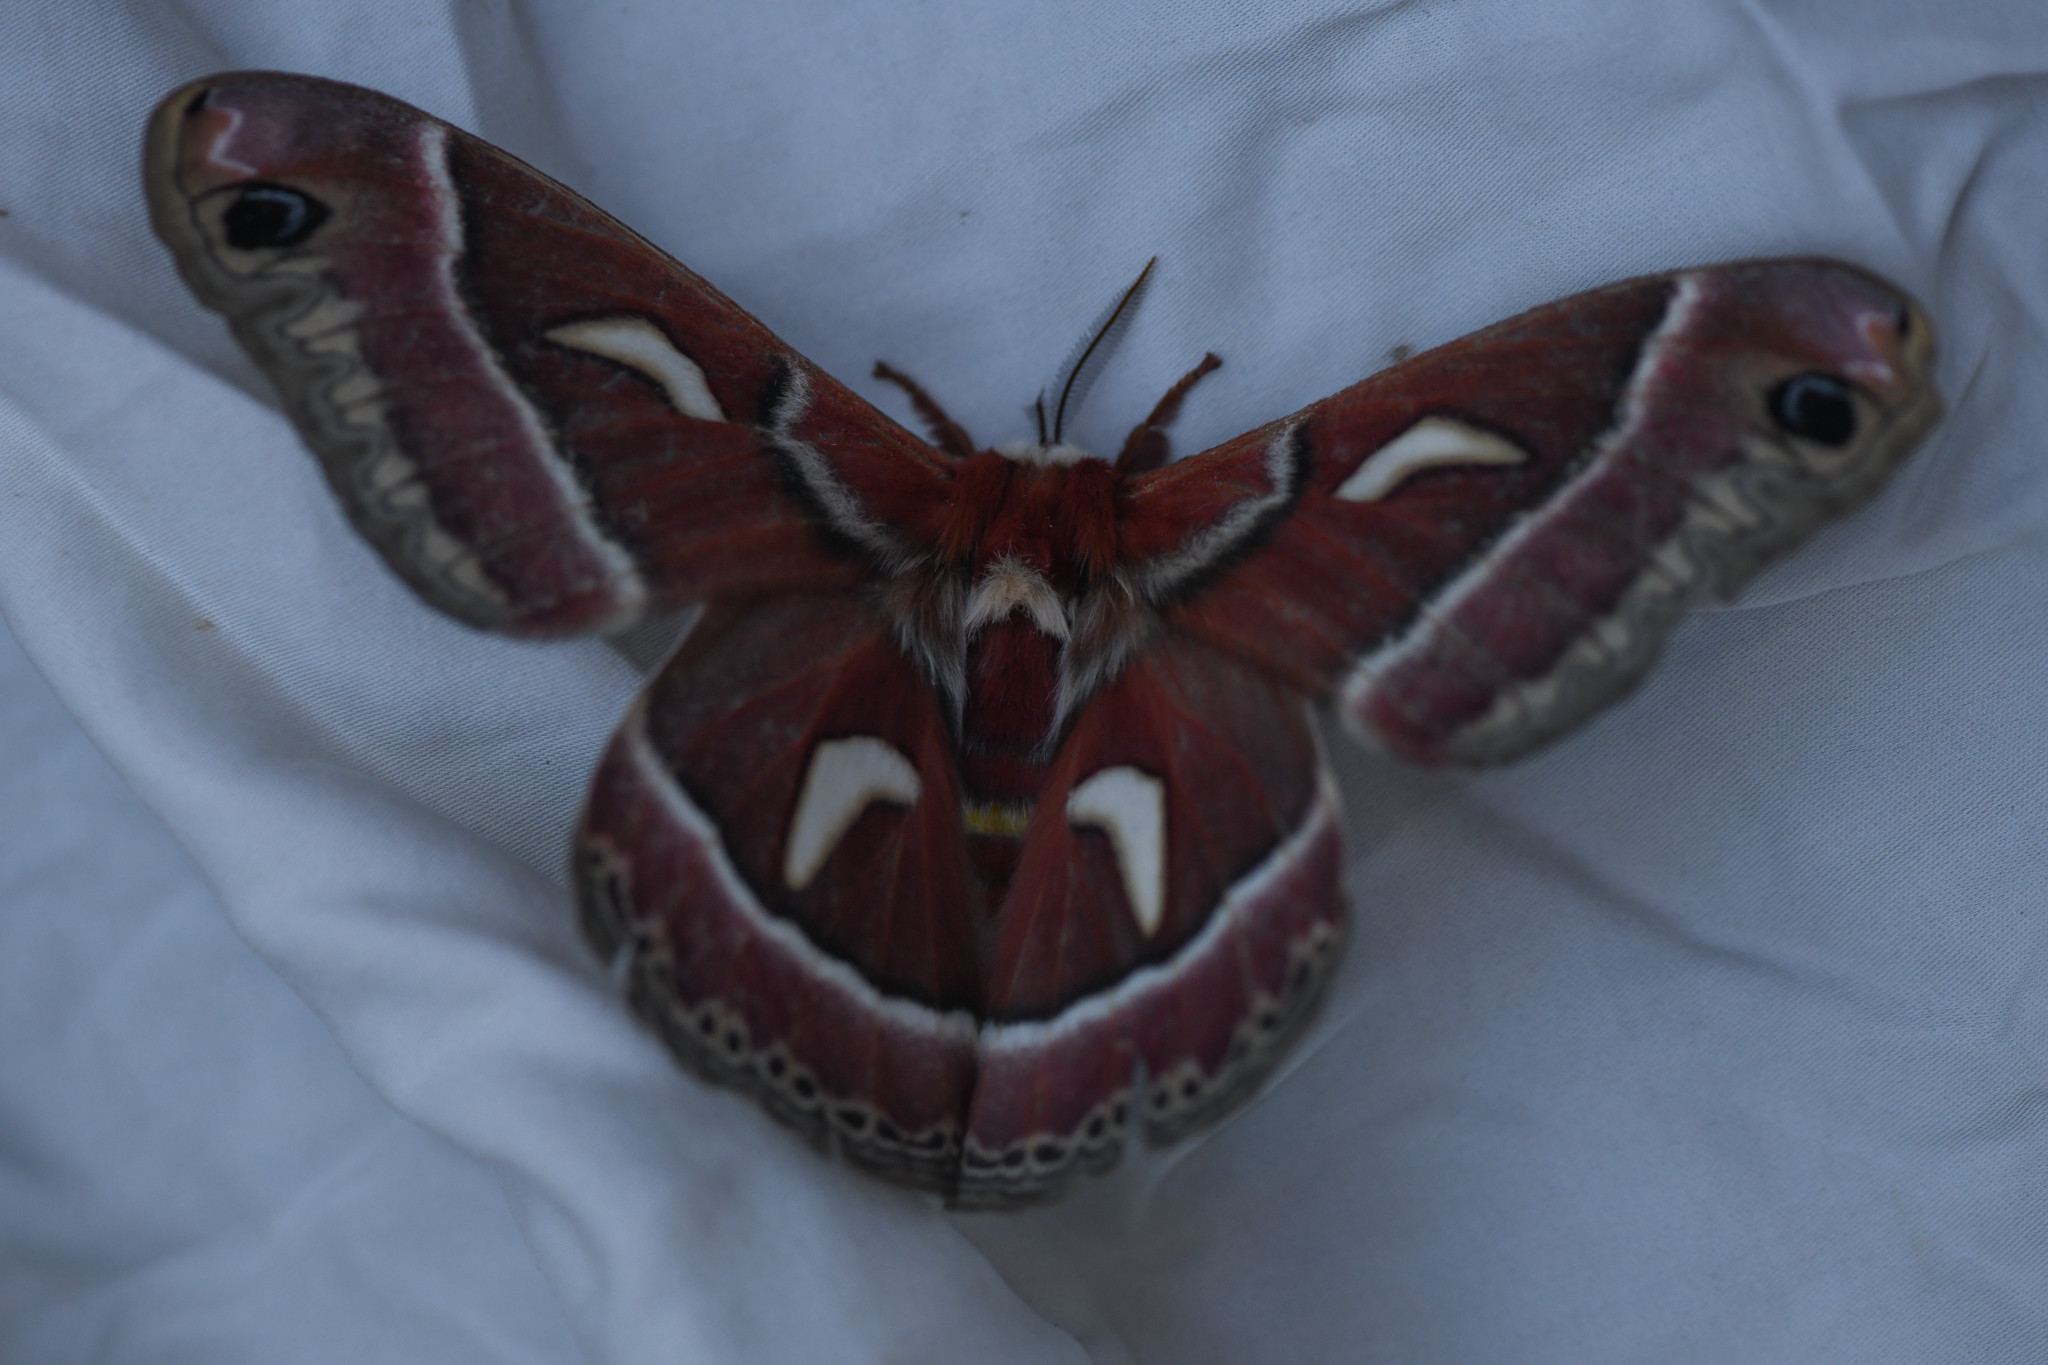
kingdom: Animalia
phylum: Arthropoda
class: Insecta
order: Lepidoptera
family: Saturniidae
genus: Hyalophora
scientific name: Hyalophora euryalus
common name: Ceanothus silkmoth
